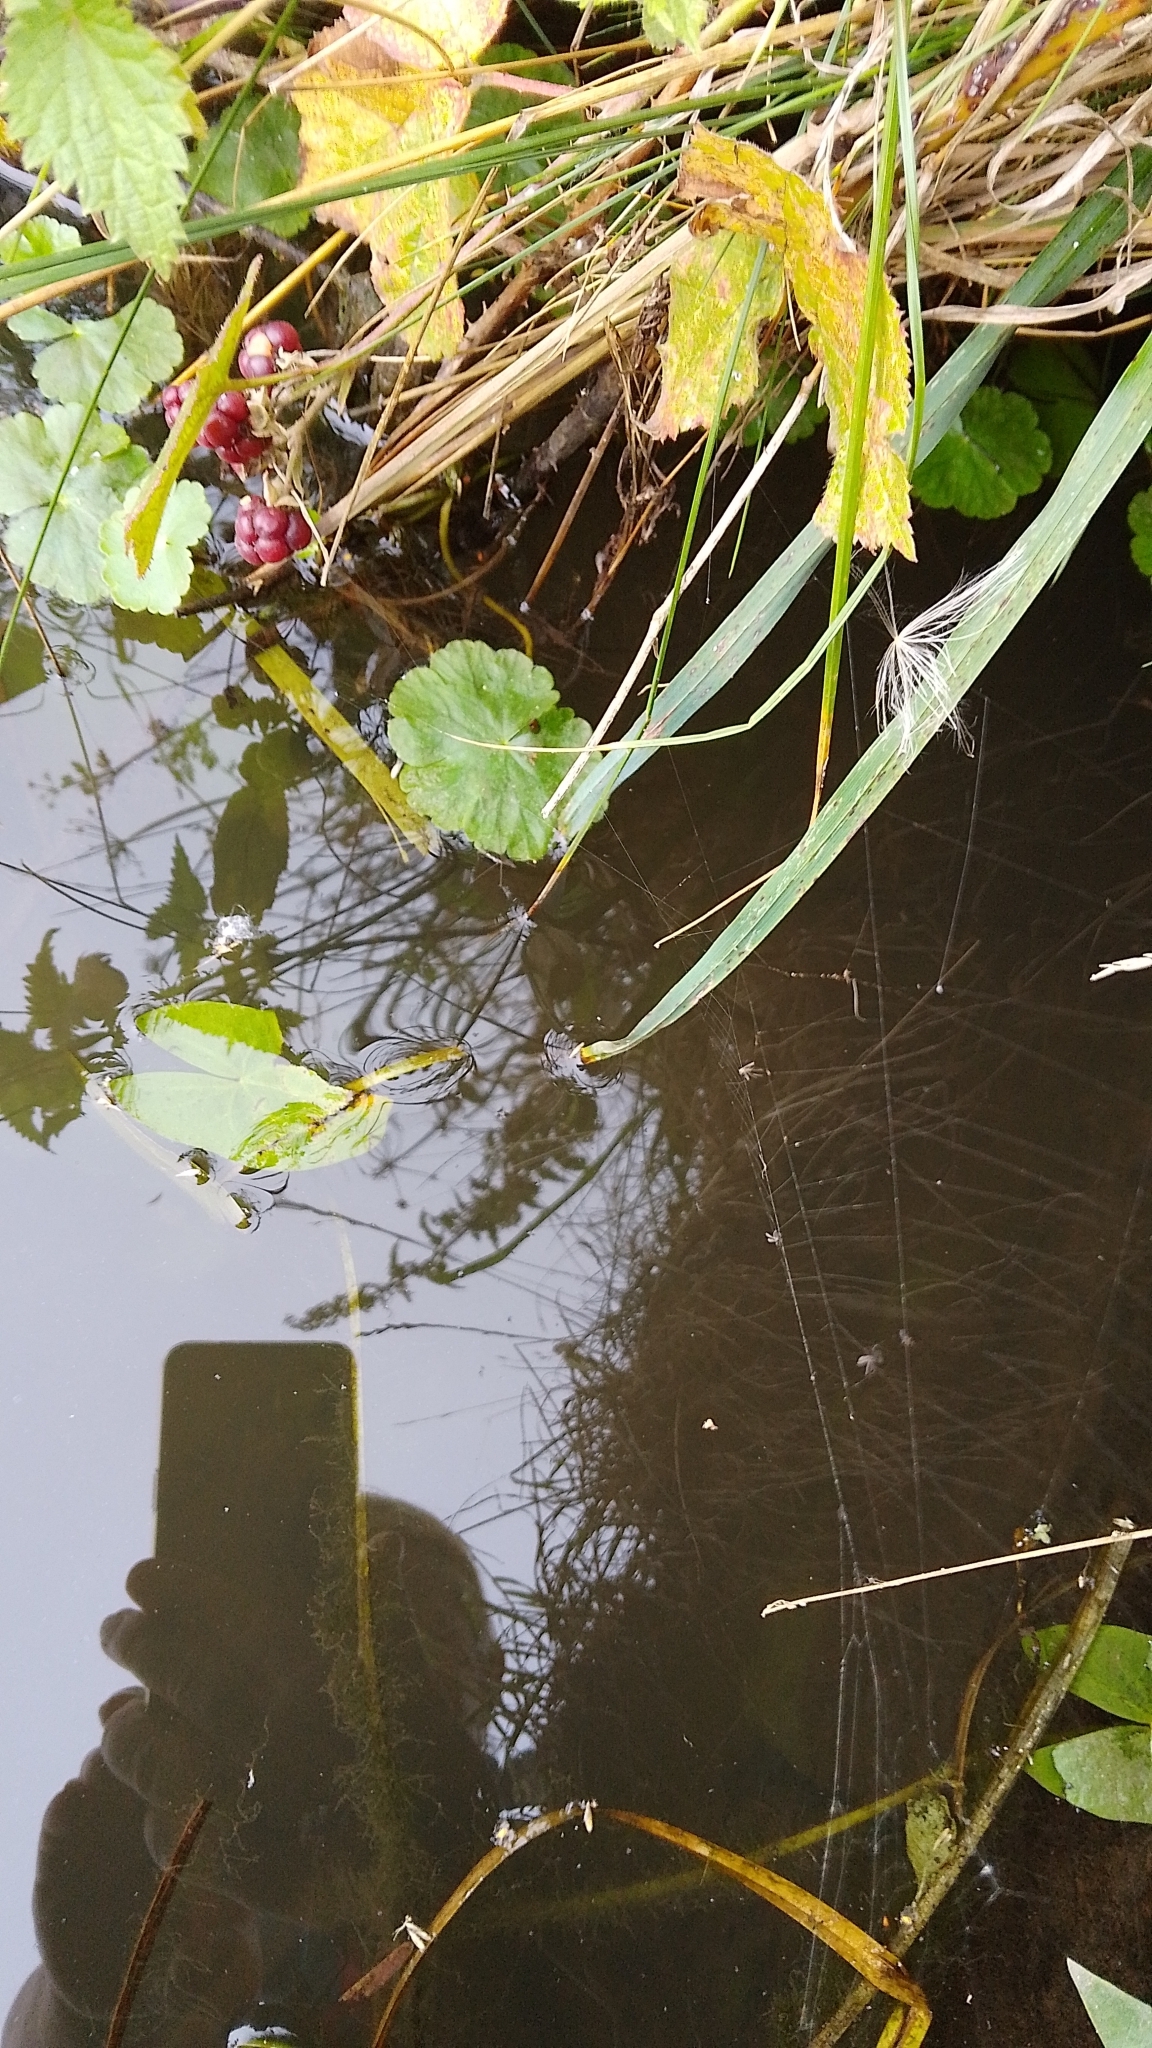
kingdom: Plantae
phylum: Tracheophyta
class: Magnoliopsida
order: Apiales
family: Araliaceae
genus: Hydrocotyle
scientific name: Hydrocotyle ranunculoides
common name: Floating pennywort
